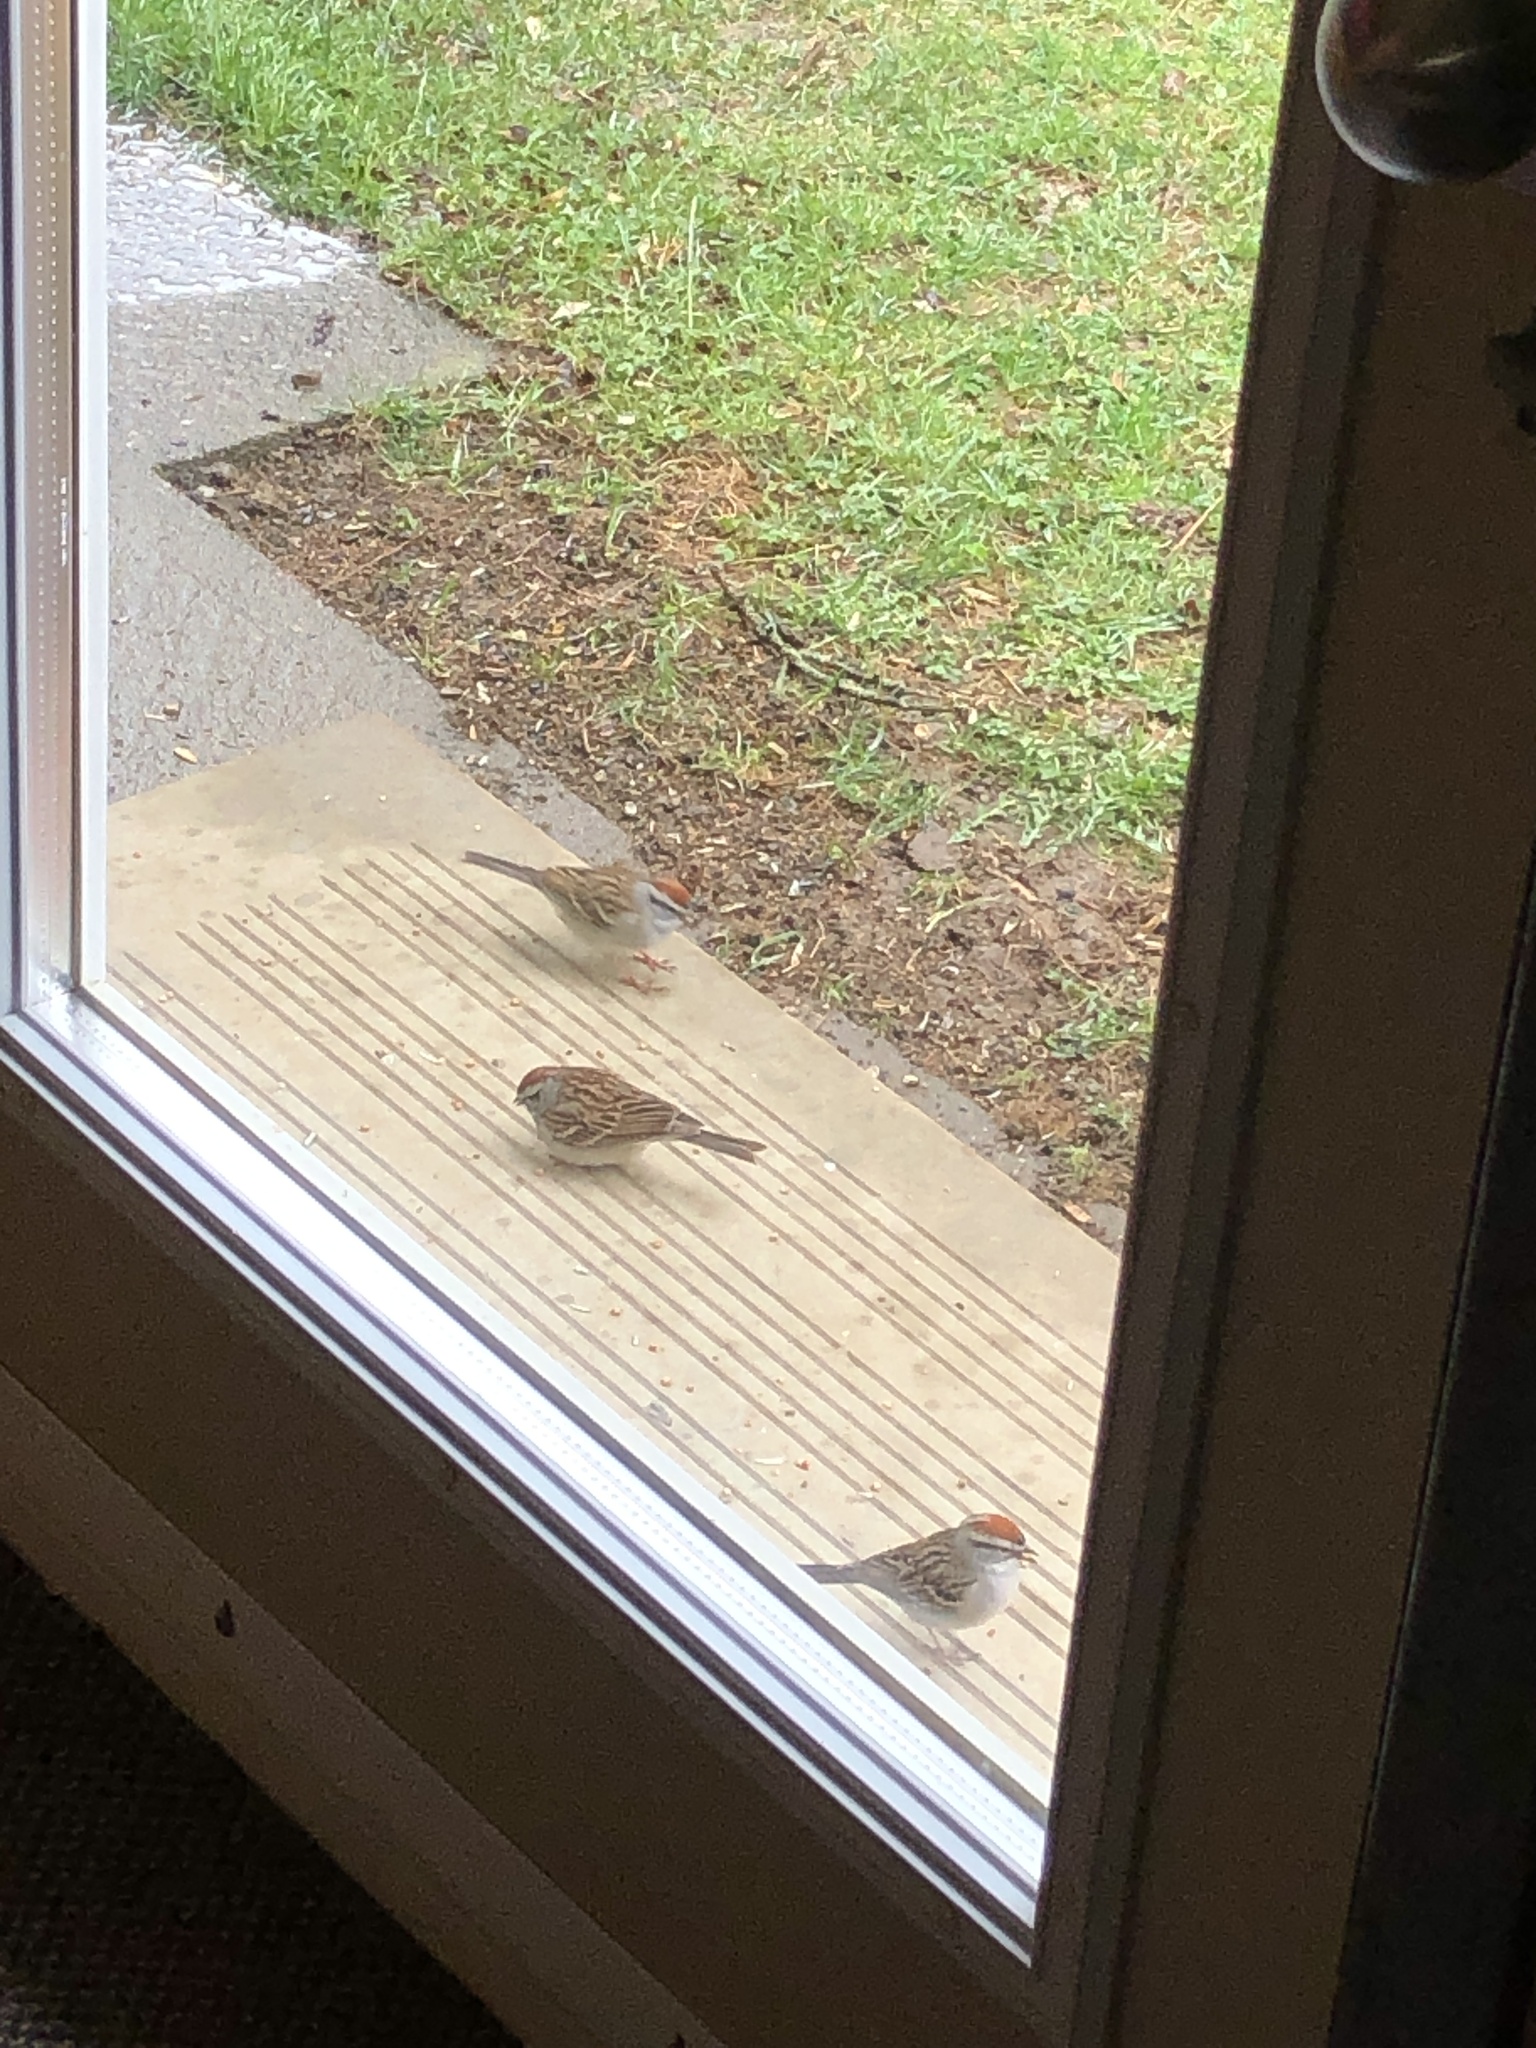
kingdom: Animalia
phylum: Chordata
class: Aves
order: Passeriformes
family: Passerellidae
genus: Spizella
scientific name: Spizella passerina
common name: Chipping sparrow
